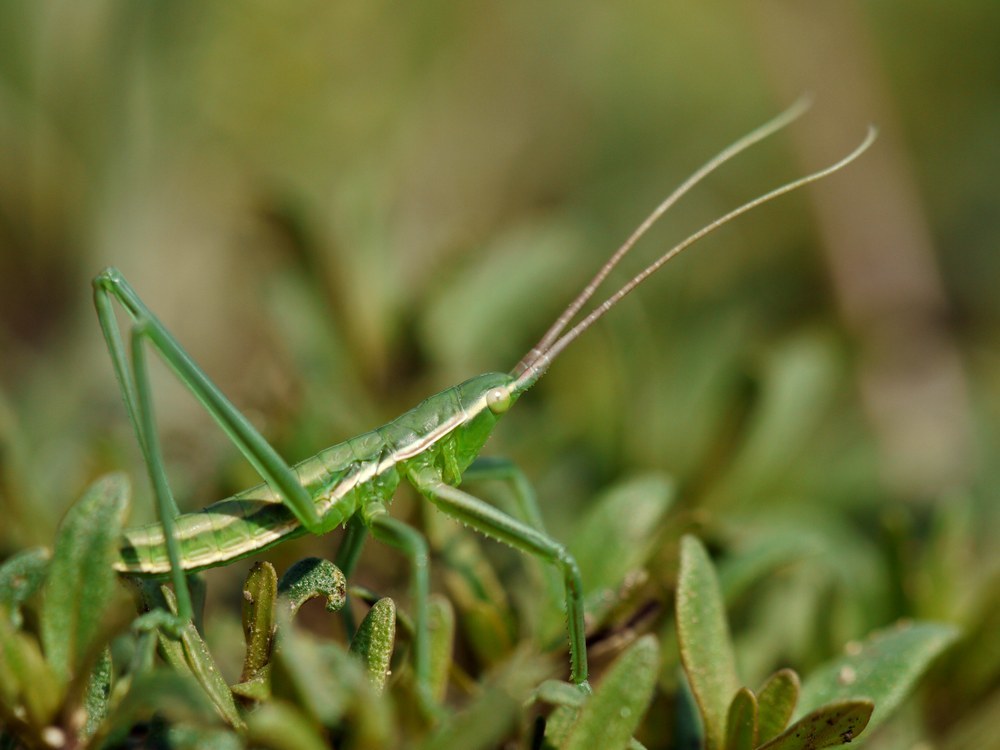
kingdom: Animalia
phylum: Arthropoda
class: Insecta
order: Orthoptera
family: Tettigoniidae
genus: Saga
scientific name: Saga pedo
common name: Common predatory bush-cricket
